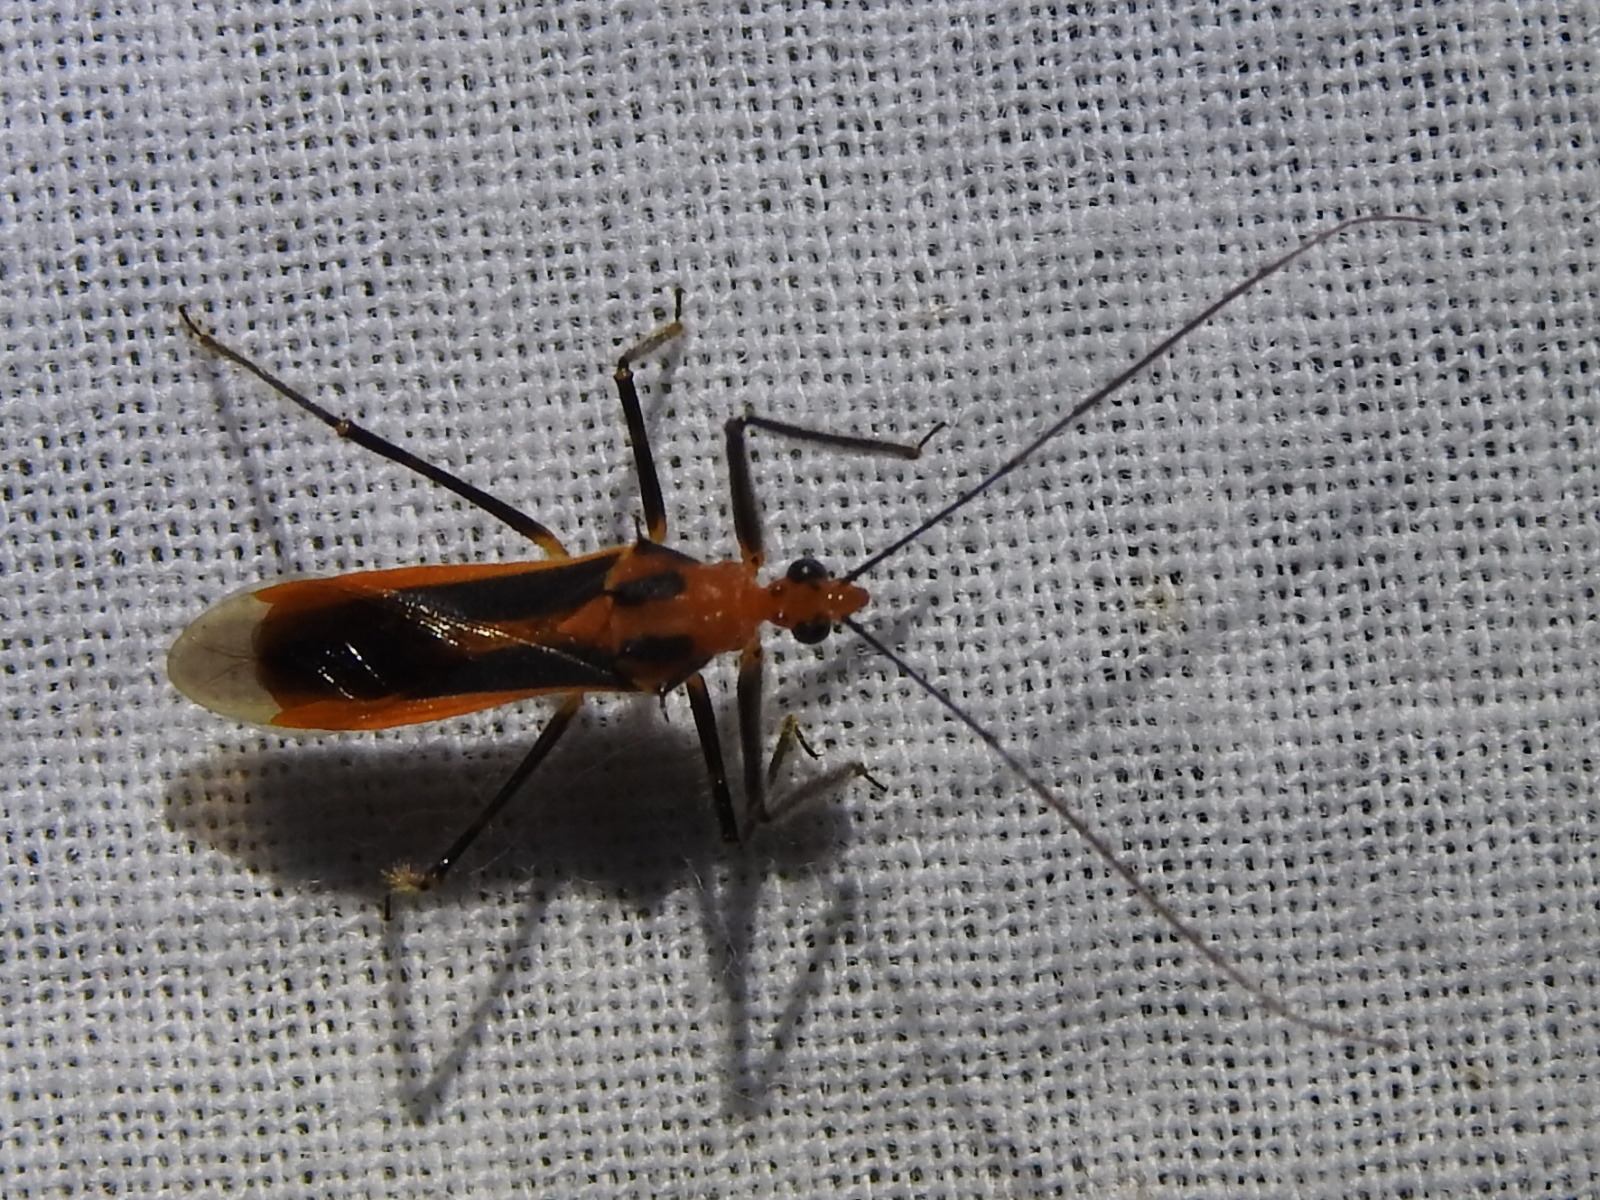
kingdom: Animalia
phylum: Arthropoda
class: Insecta
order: Hemiptera
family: Reduviidae
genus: Repipta
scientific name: Repipta taurus
